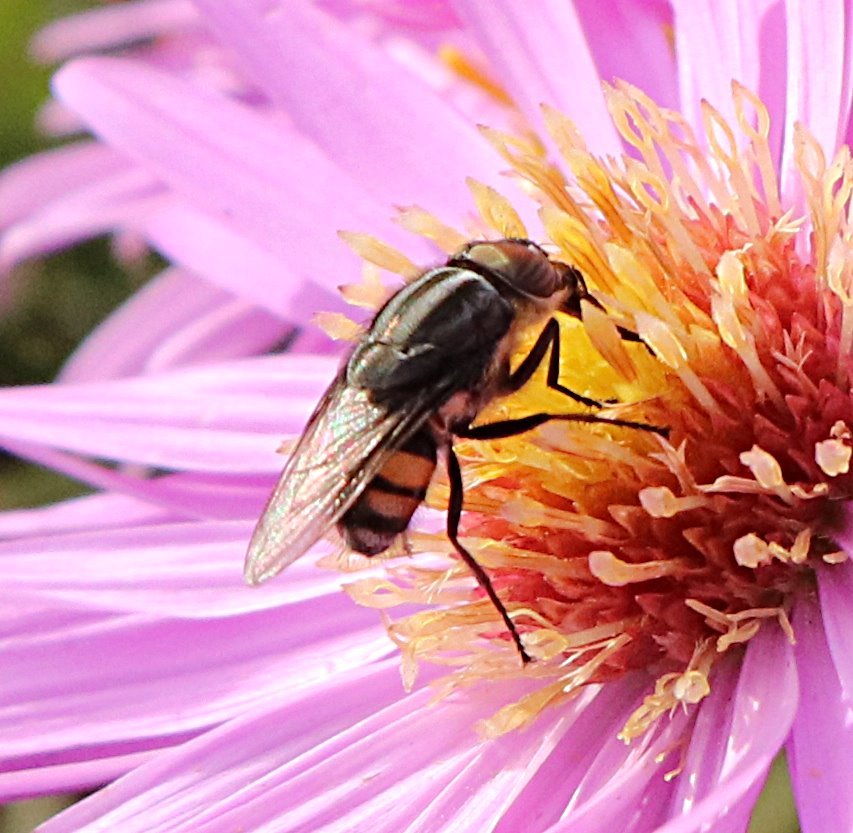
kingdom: Animalia
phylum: Arthropoda
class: Insecta
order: Diptera
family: Calliphoridae
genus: Stomorhina
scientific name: Stomorhina lunata
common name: Locust blowfly
